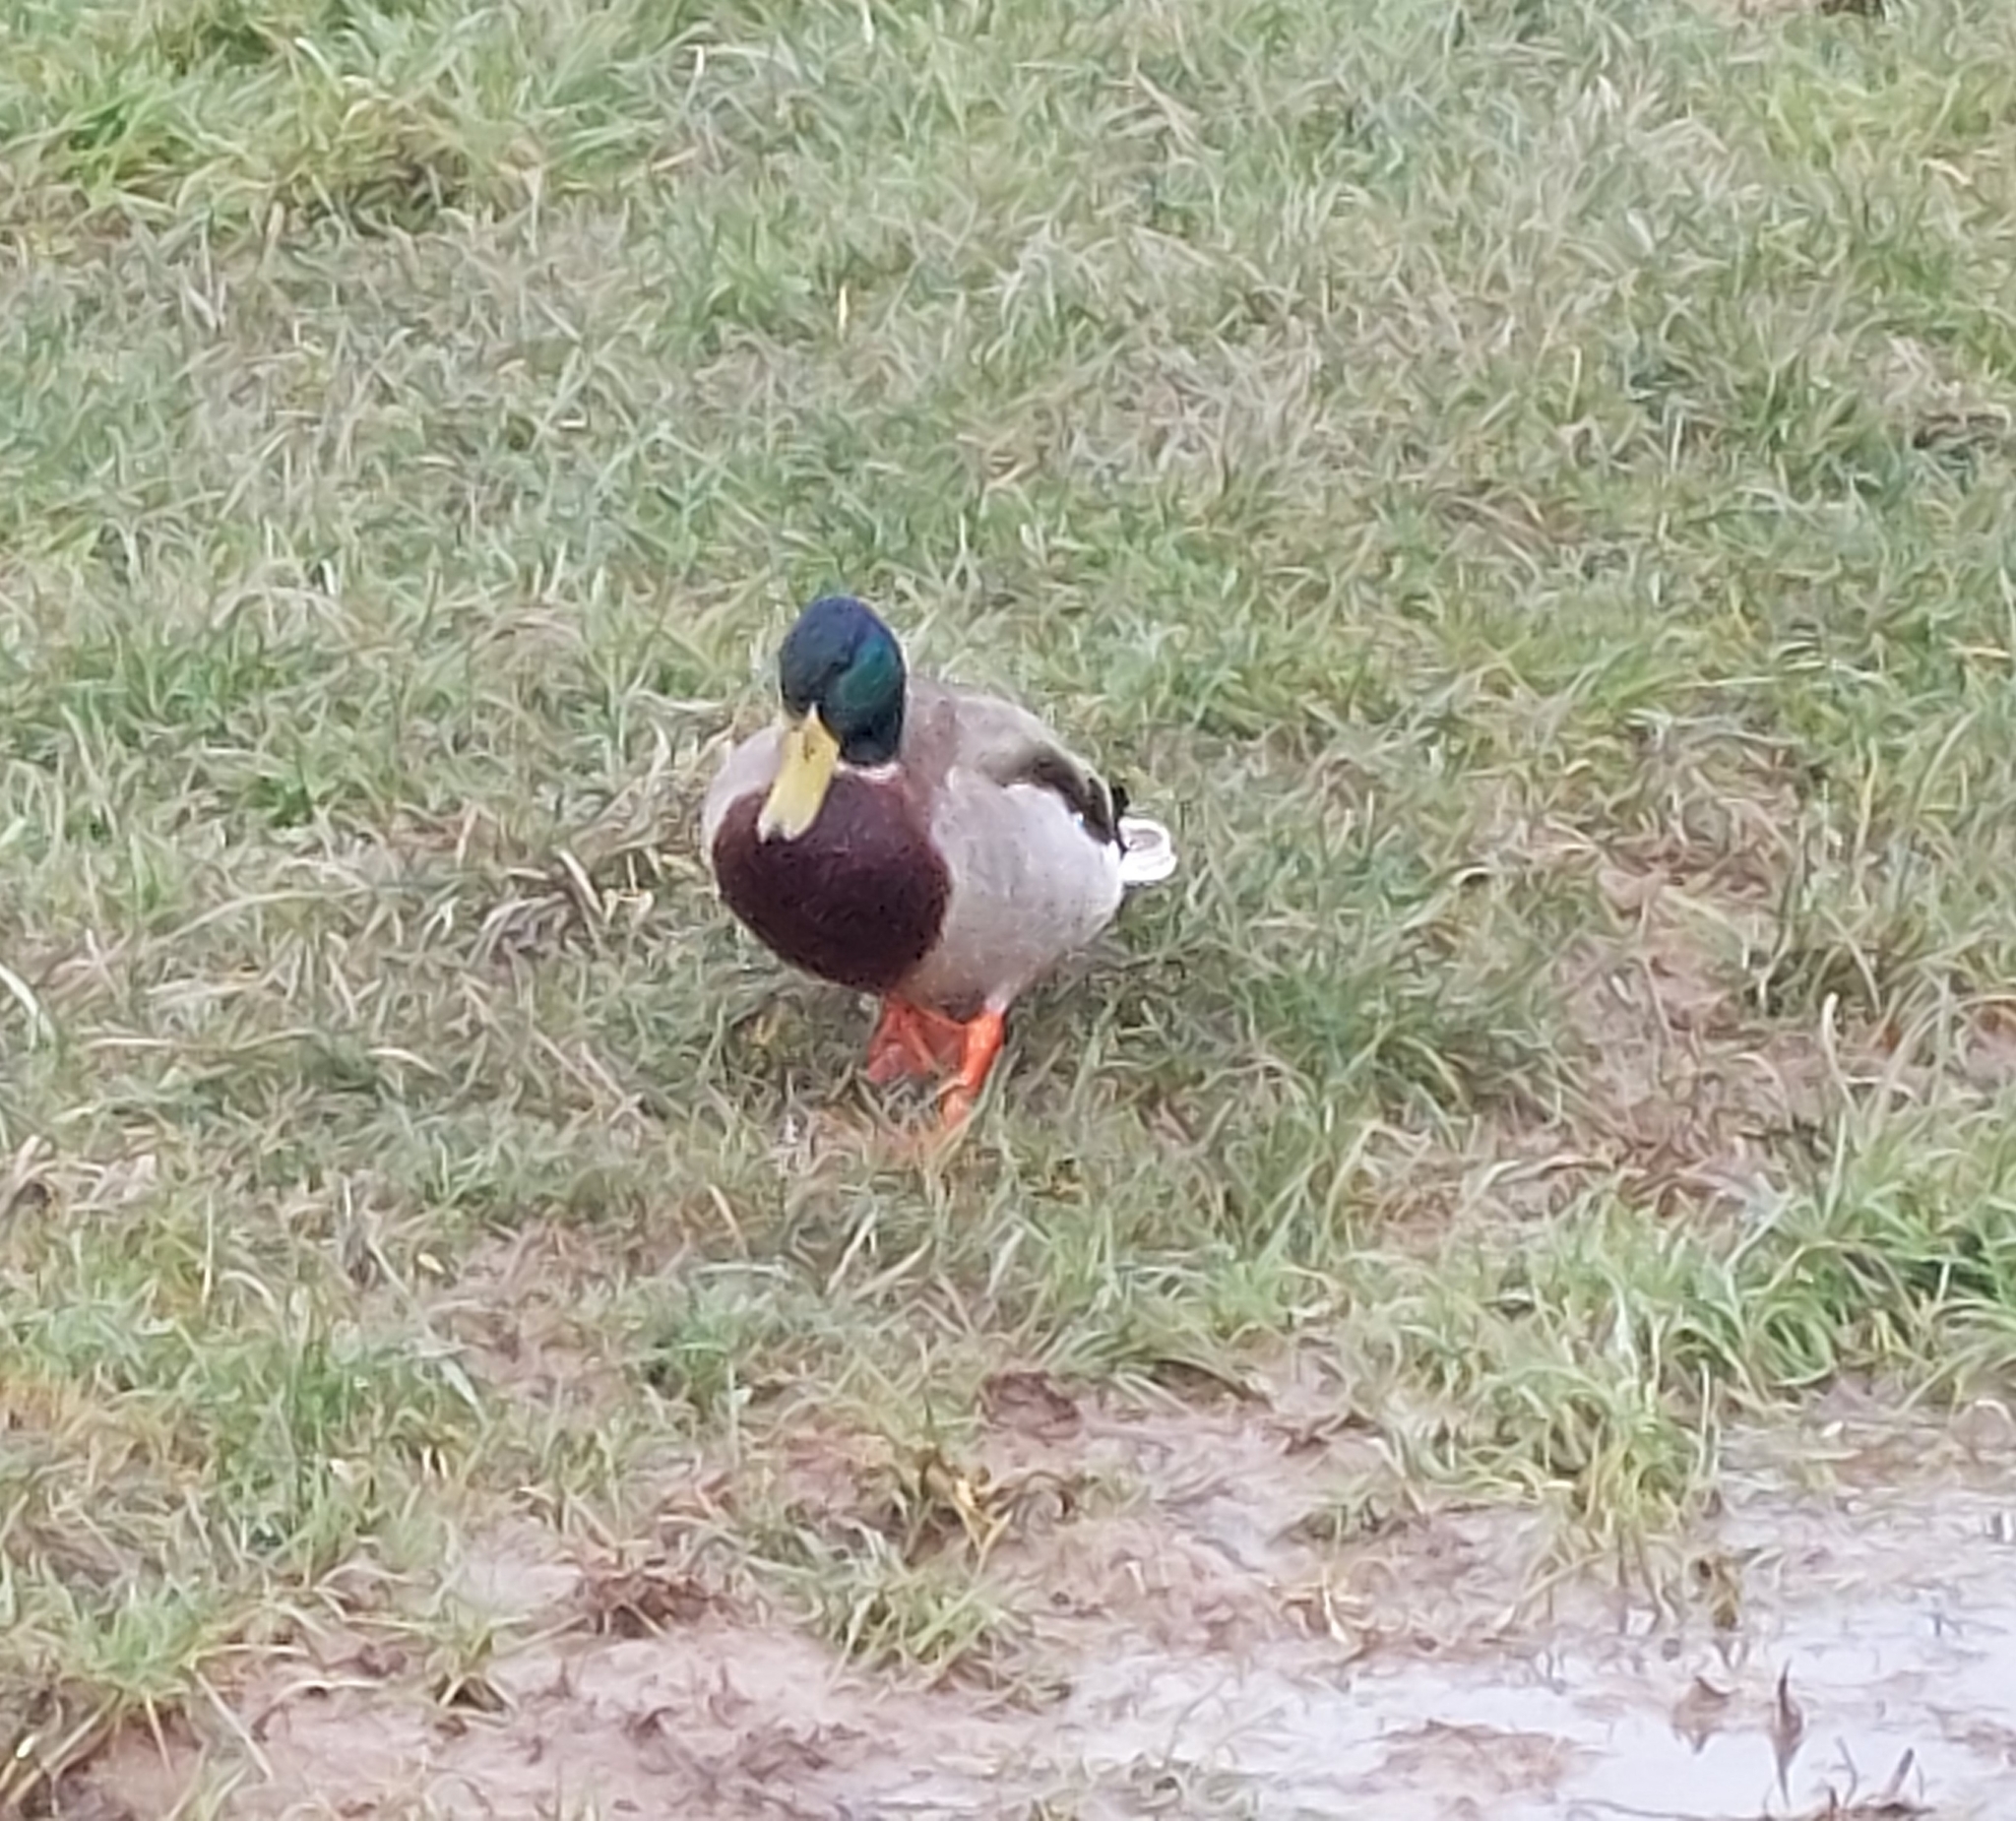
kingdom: Animalia
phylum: Chordata
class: Aves
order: Anseriformes
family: Anatidae
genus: Anas
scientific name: Anas platyrhynchos
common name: Mallard
